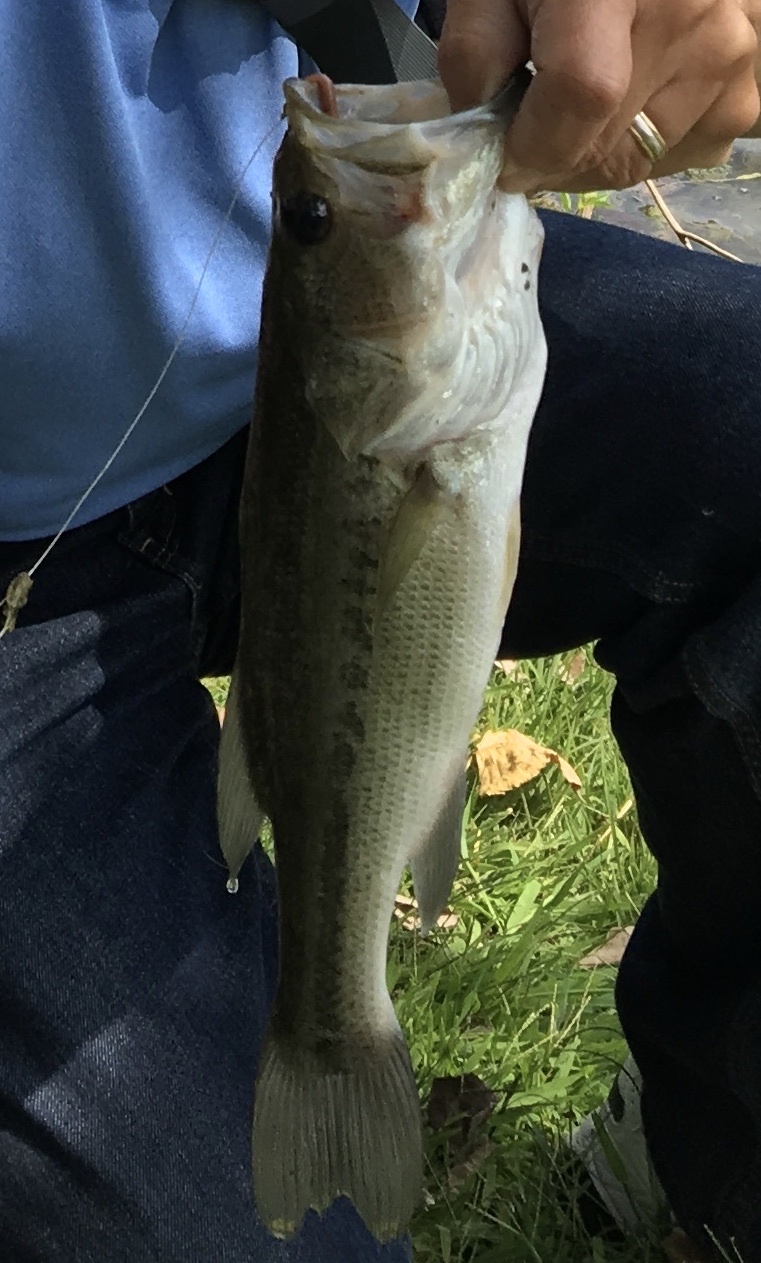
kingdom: Animalia
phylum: Chordata
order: Perciformes
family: Centrarchidae
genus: Micropterus
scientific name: Micropterus
